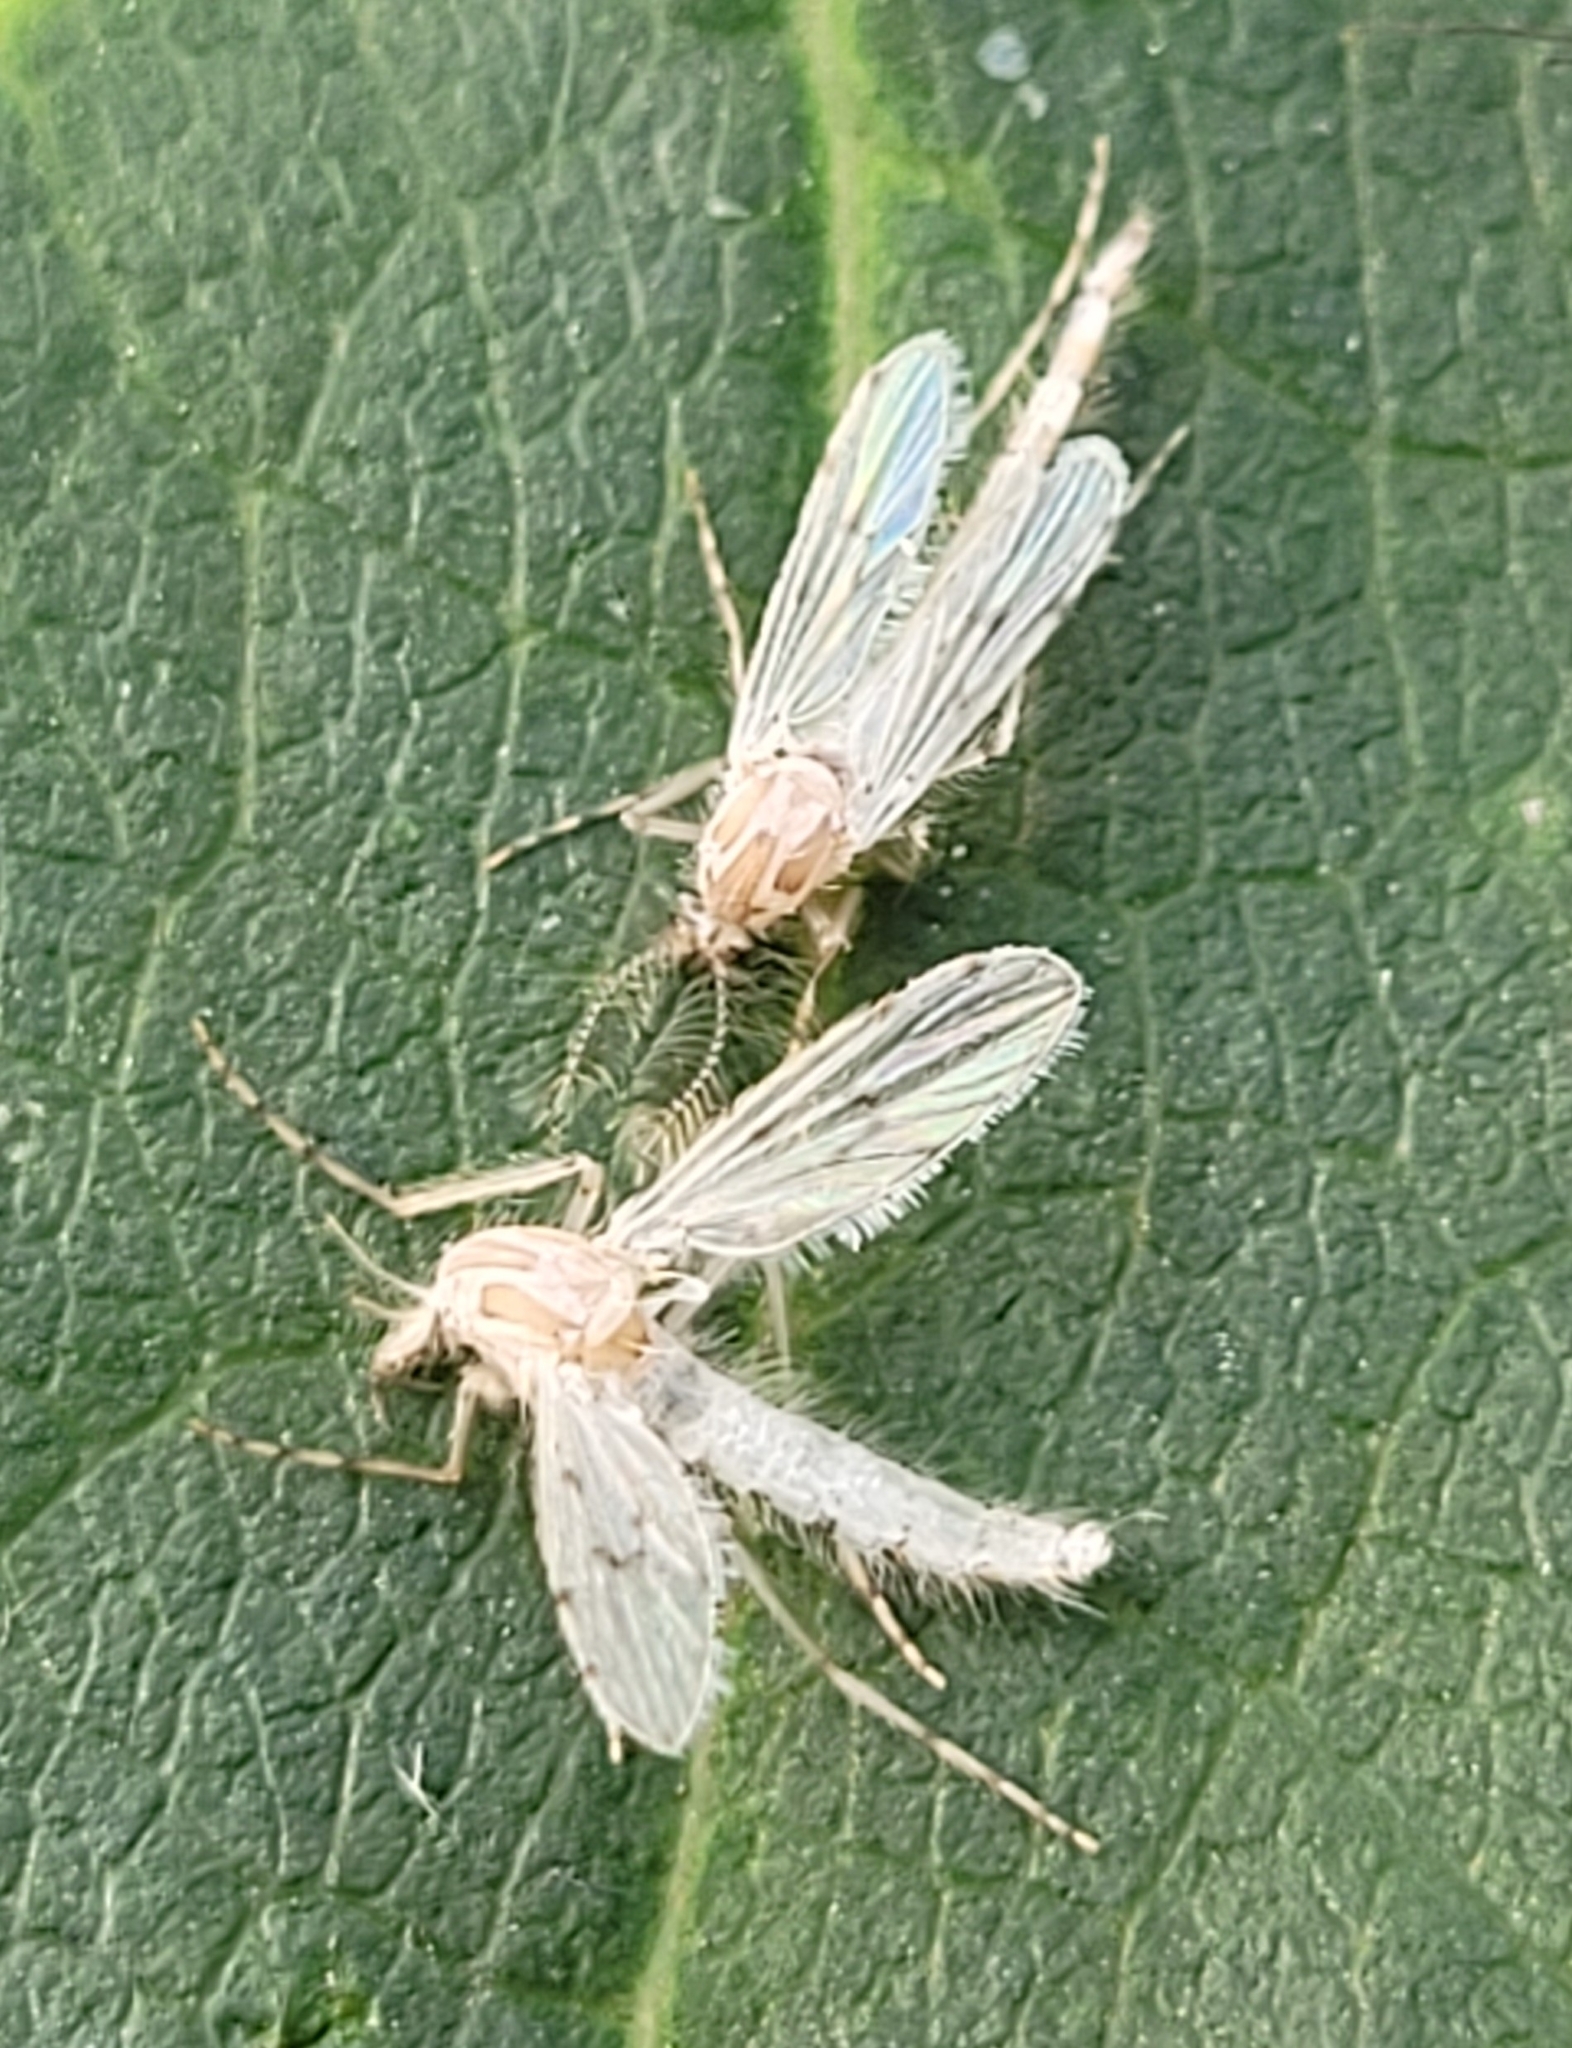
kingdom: Animalia
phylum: Arthropoda
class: Insecta
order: Diptera
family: Chaoboridae
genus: Chaoborus
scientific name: Chaoborus albatus
